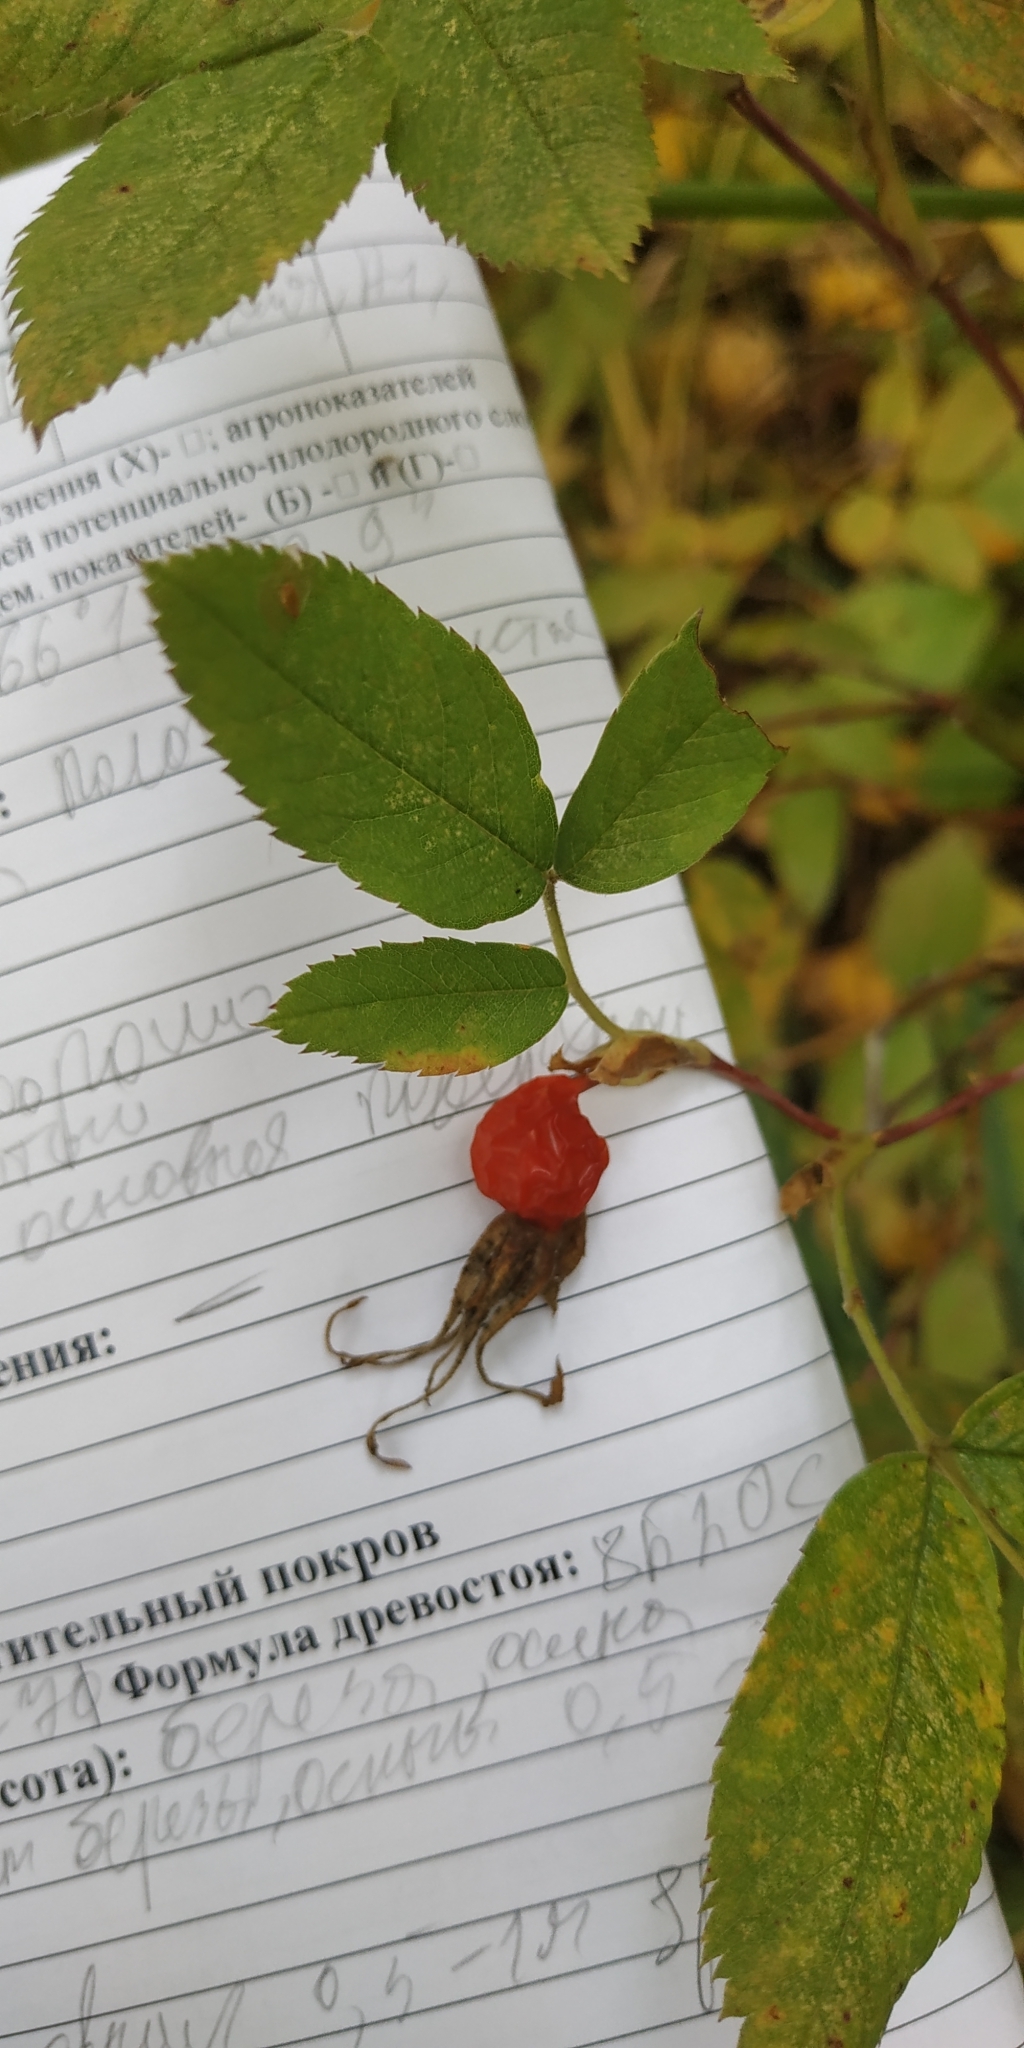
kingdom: Plantae
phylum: Tracheophyta
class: Magnoliopsida
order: Rosales
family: Rosaceae
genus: Rosa
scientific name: Rosa
